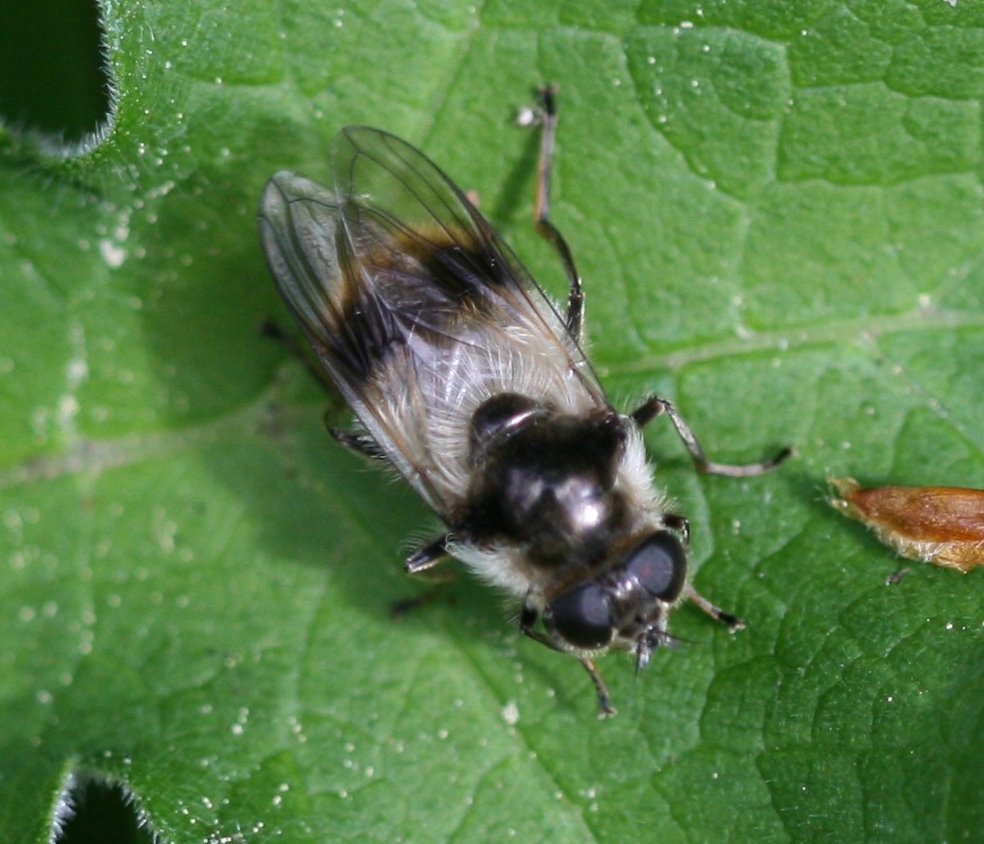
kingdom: Animalia
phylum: Arthropoda
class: Insecta
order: Diptera
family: Syrphidae
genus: Cheilosia
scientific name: Cheilosia illustrata
